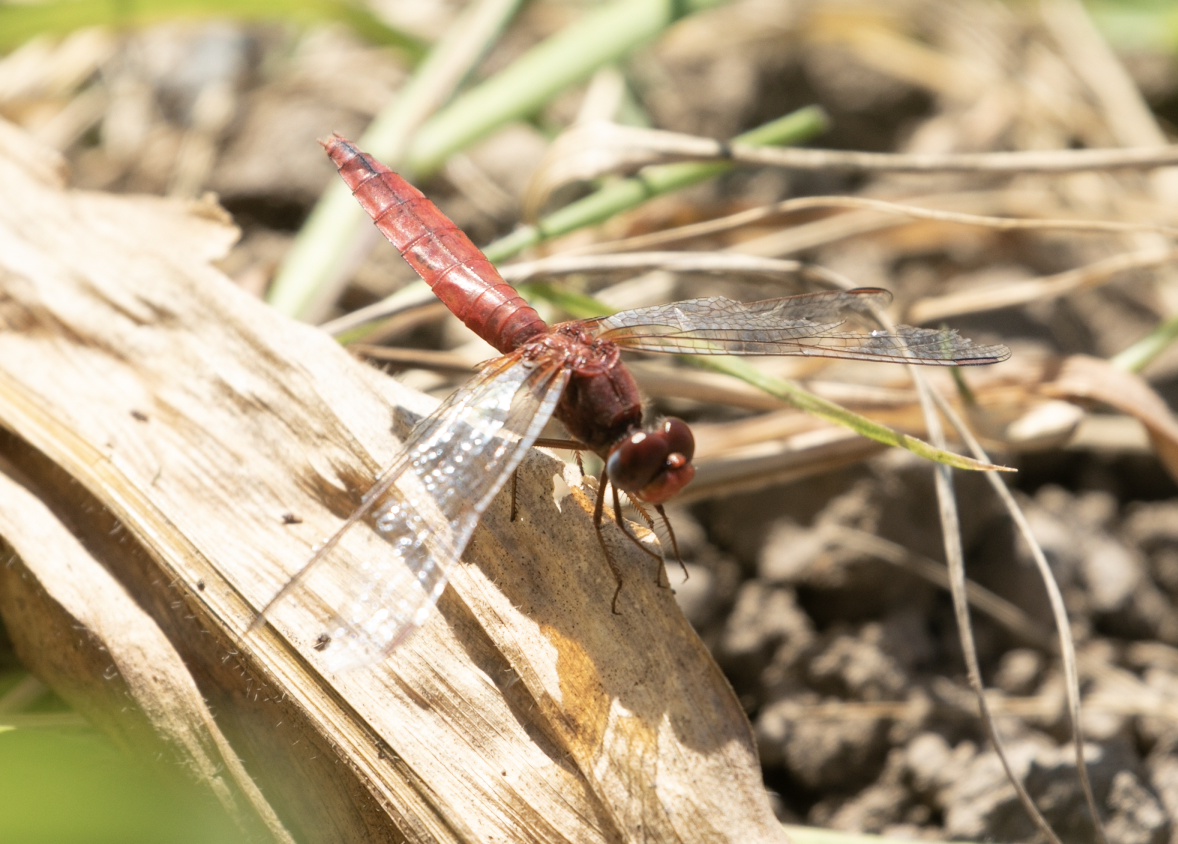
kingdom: Animalia
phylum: Arthropoda
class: Insecta
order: Odonata
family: Libellulidae
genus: Crocothemis
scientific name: Crocothemis erythraea
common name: Scarlet dragonfly
